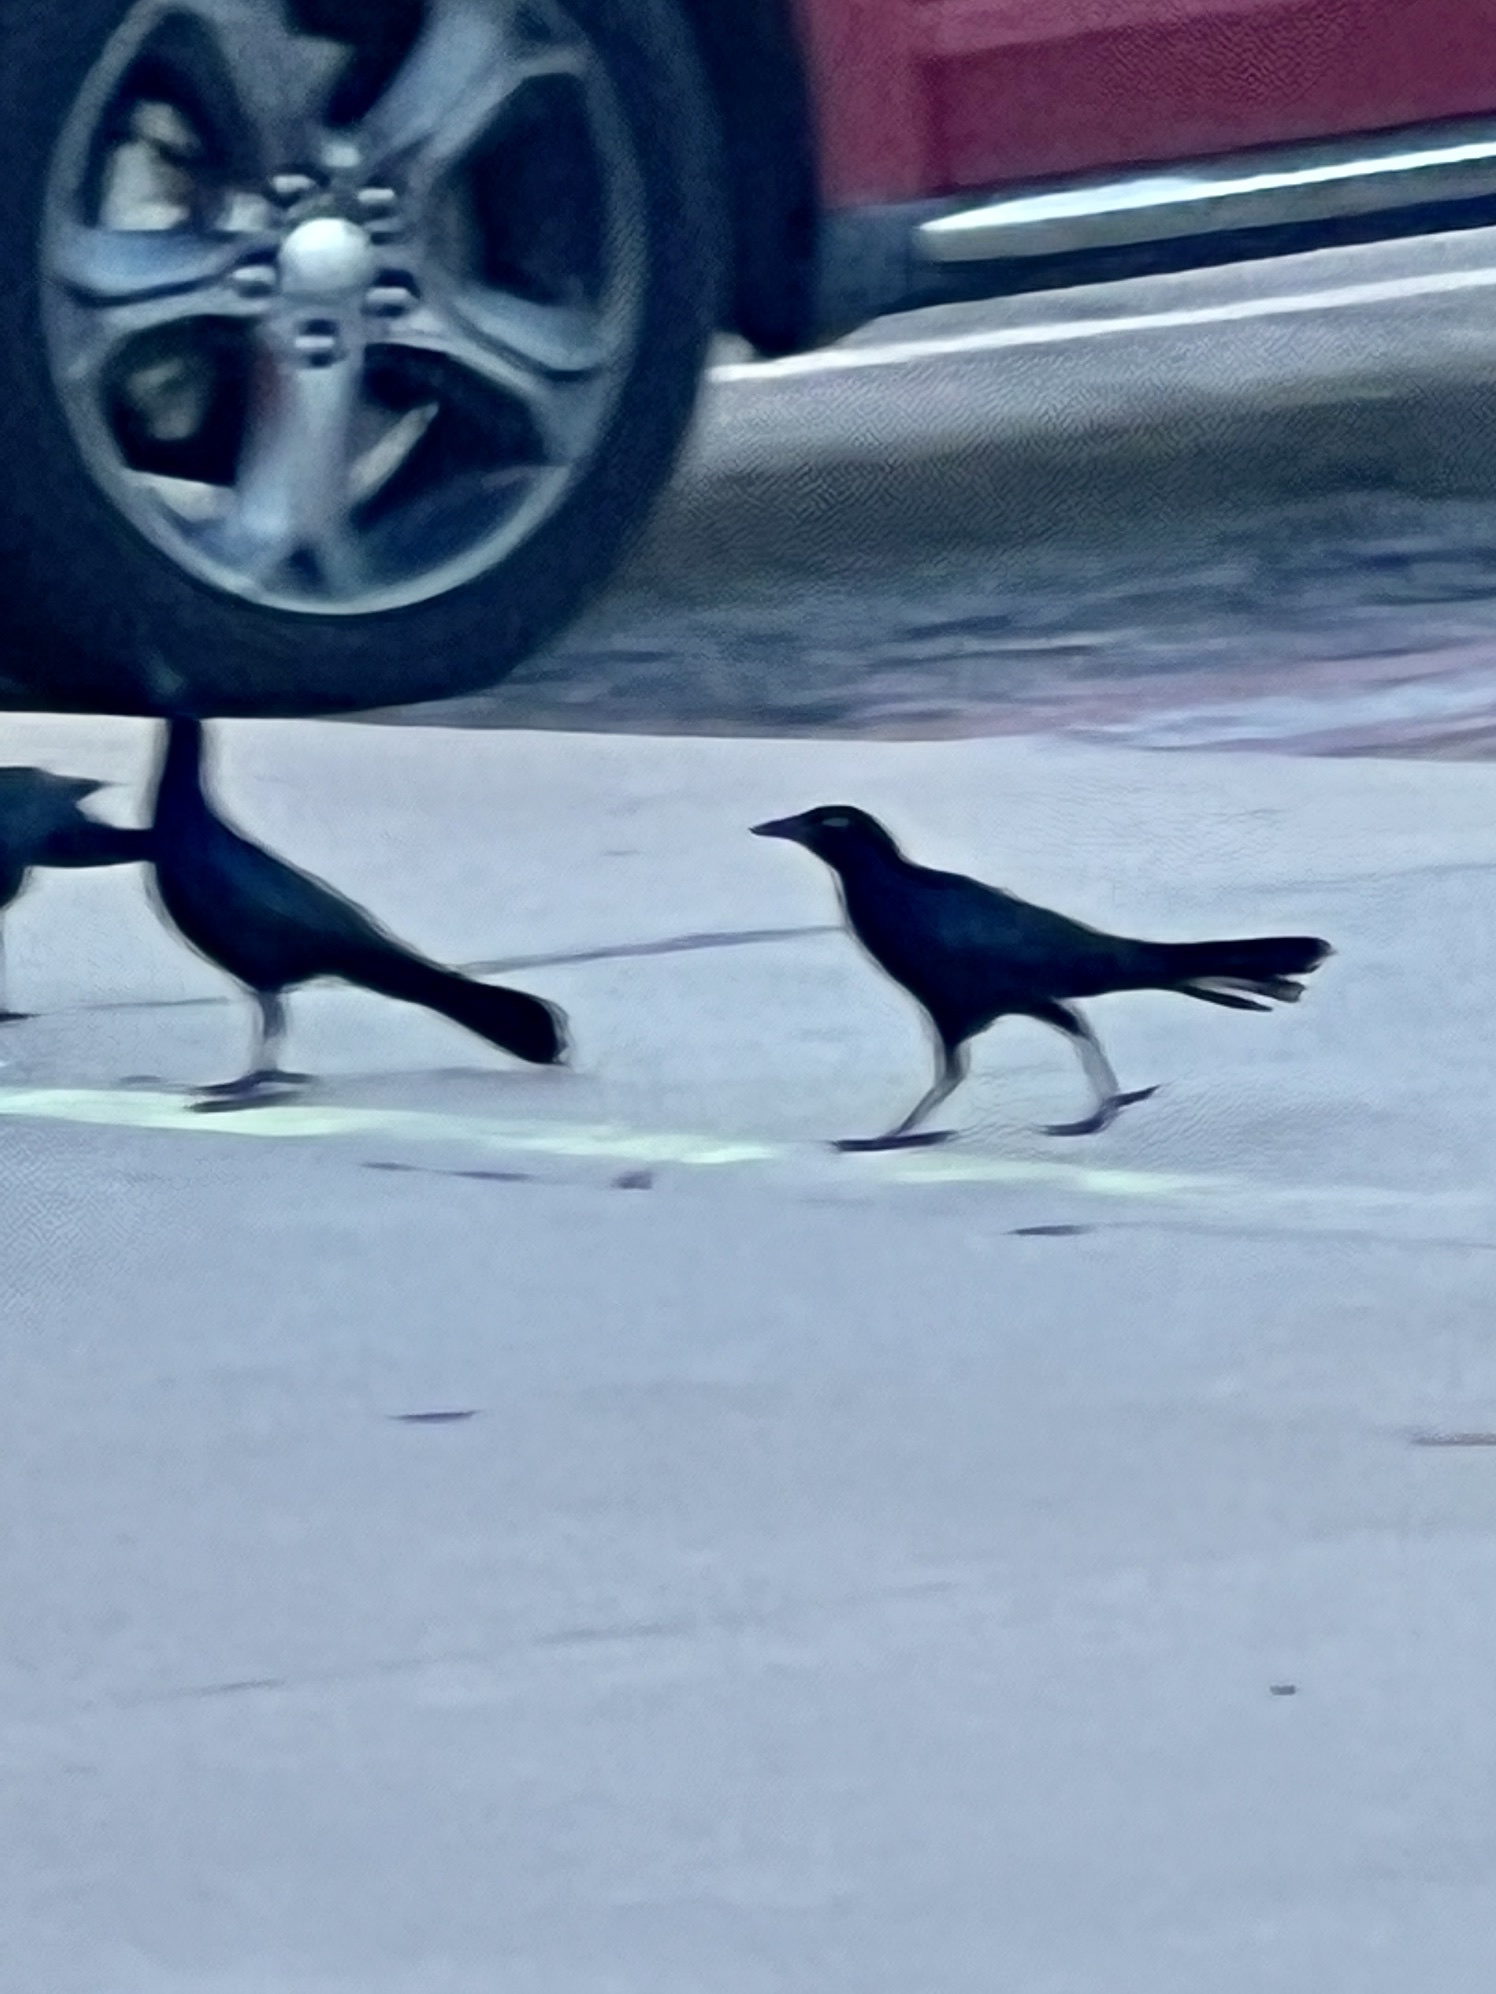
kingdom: Animalia
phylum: Chordata
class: Aves
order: Passeriformes
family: Icteridae
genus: Quiscalus
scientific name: Quiscalus mexicanus
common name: Great-tailed grackle
